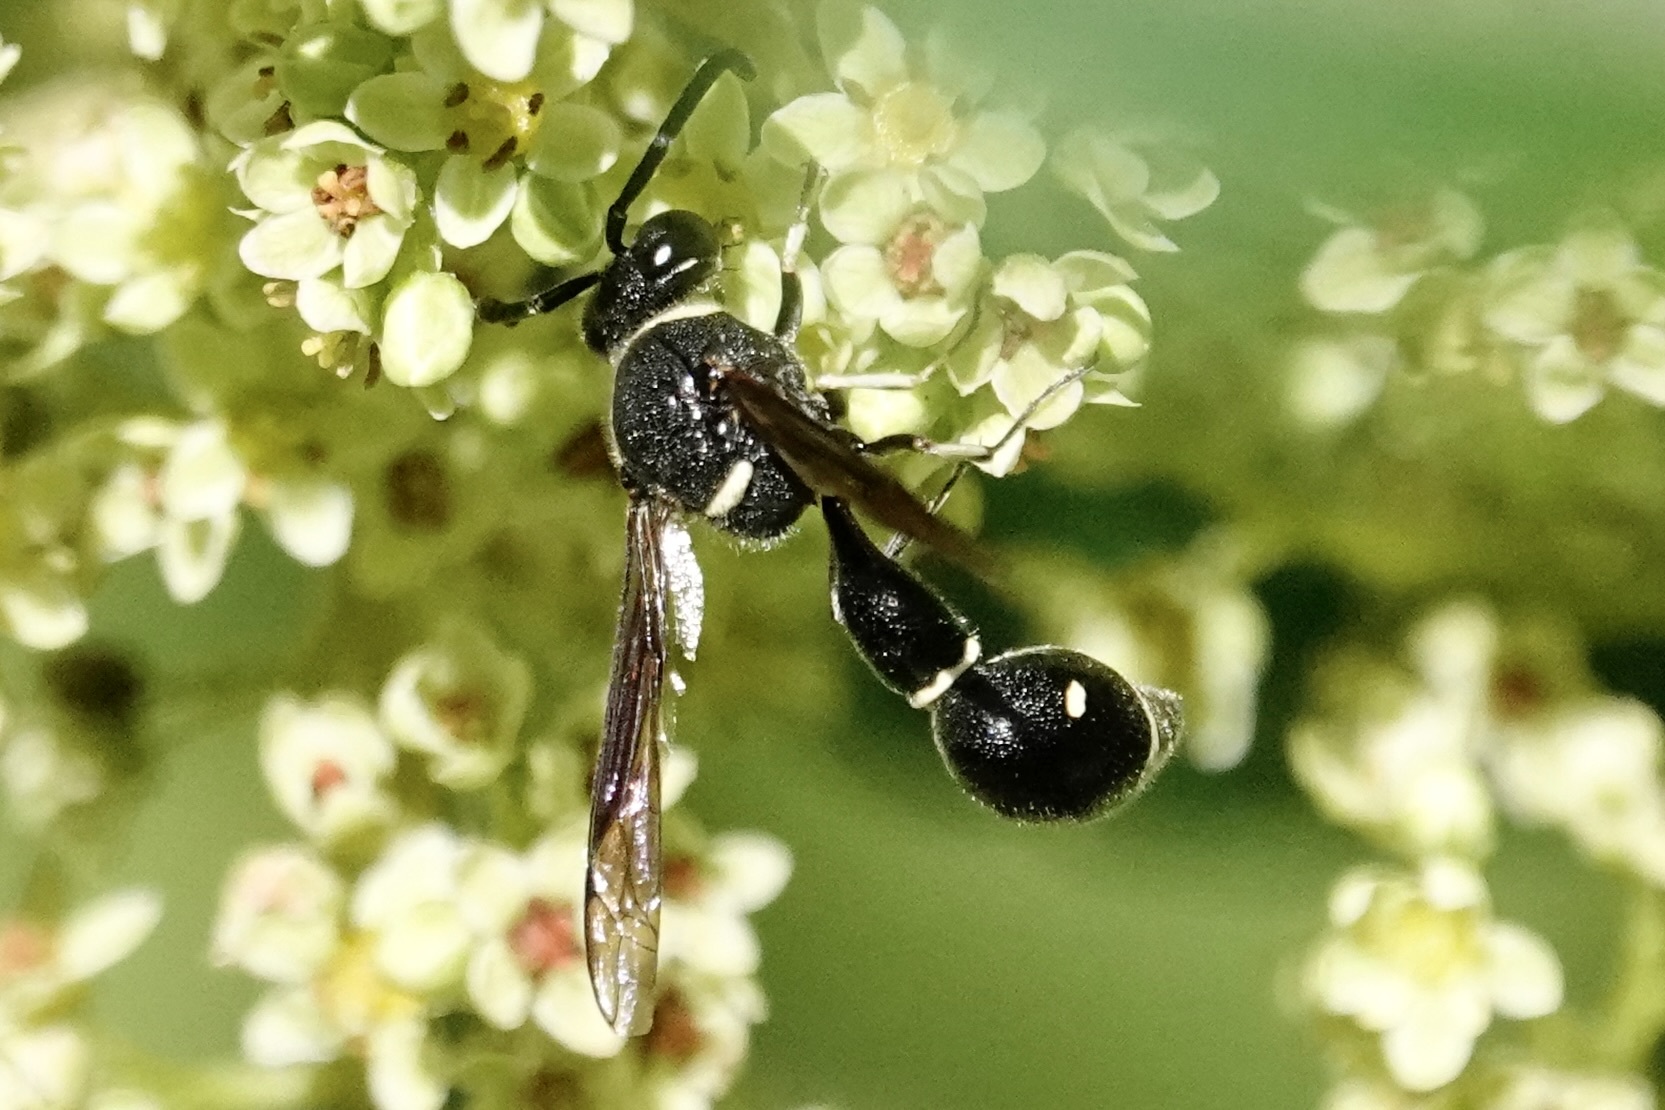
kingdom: Animalia
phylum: Arthropoda
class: Insecta
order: Hymenoptera
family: Vespidae
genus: Eumenes
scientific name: Eumenes fraternus
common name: Fraternal potter wasp
